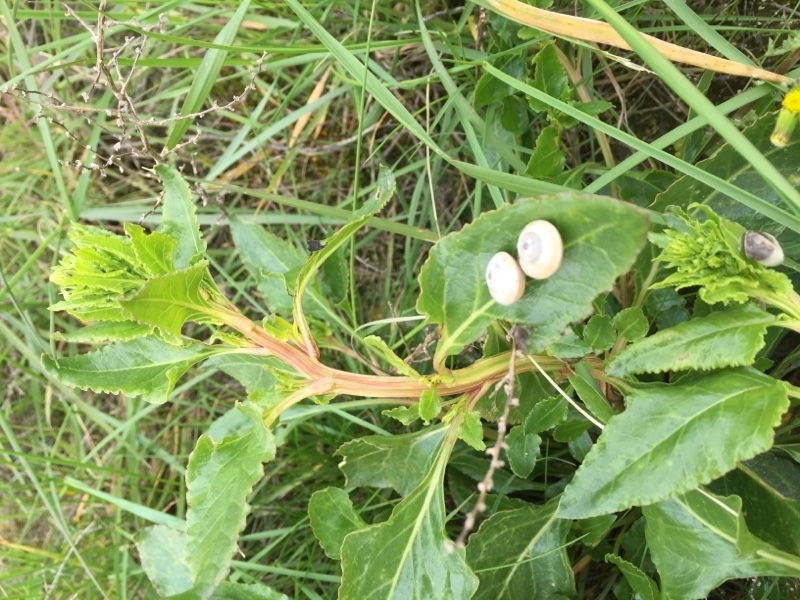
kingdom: Plantae
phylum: Tracheophyta
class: Magnoliopsida
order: Caryophyllales
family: Amaranthaceae
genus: Beta
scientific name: Beta vulgaris
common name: Beet
